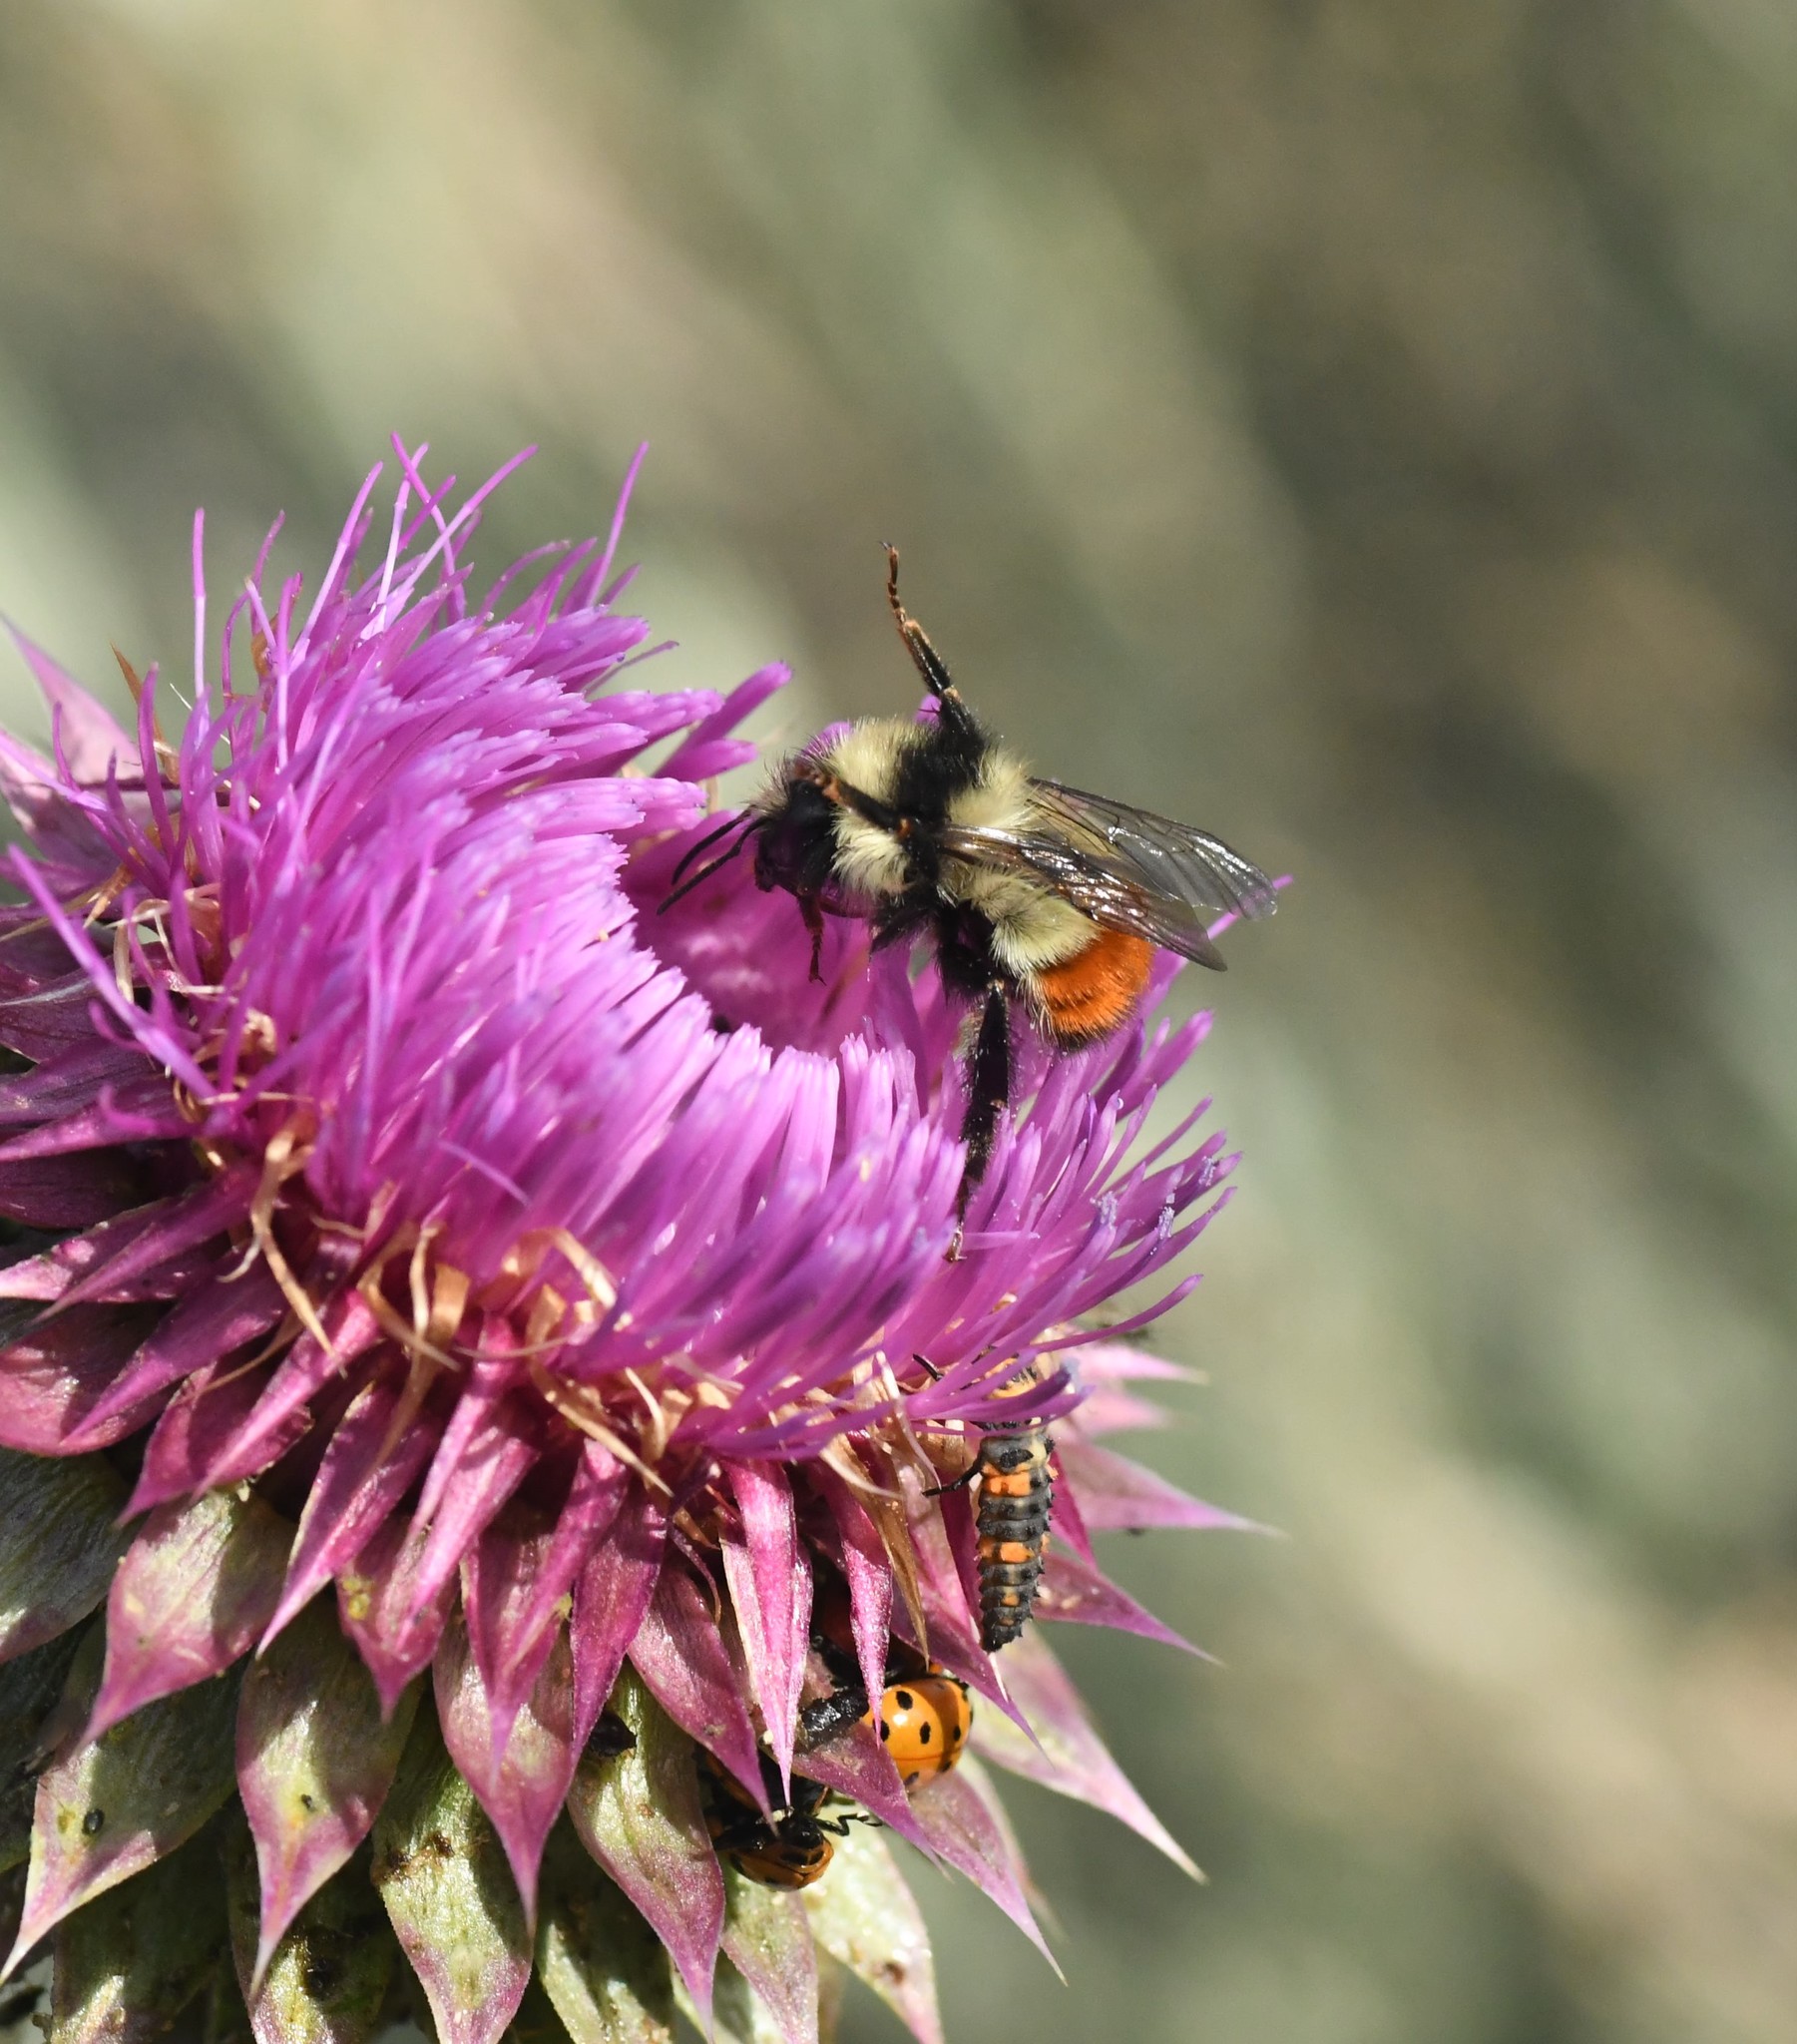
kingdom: Animalia
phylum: Arthropoda
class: Insecta
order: Hymenoptera
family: Apidae
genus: Bombus
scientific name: Bombus centralis
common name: Central bumble bee
